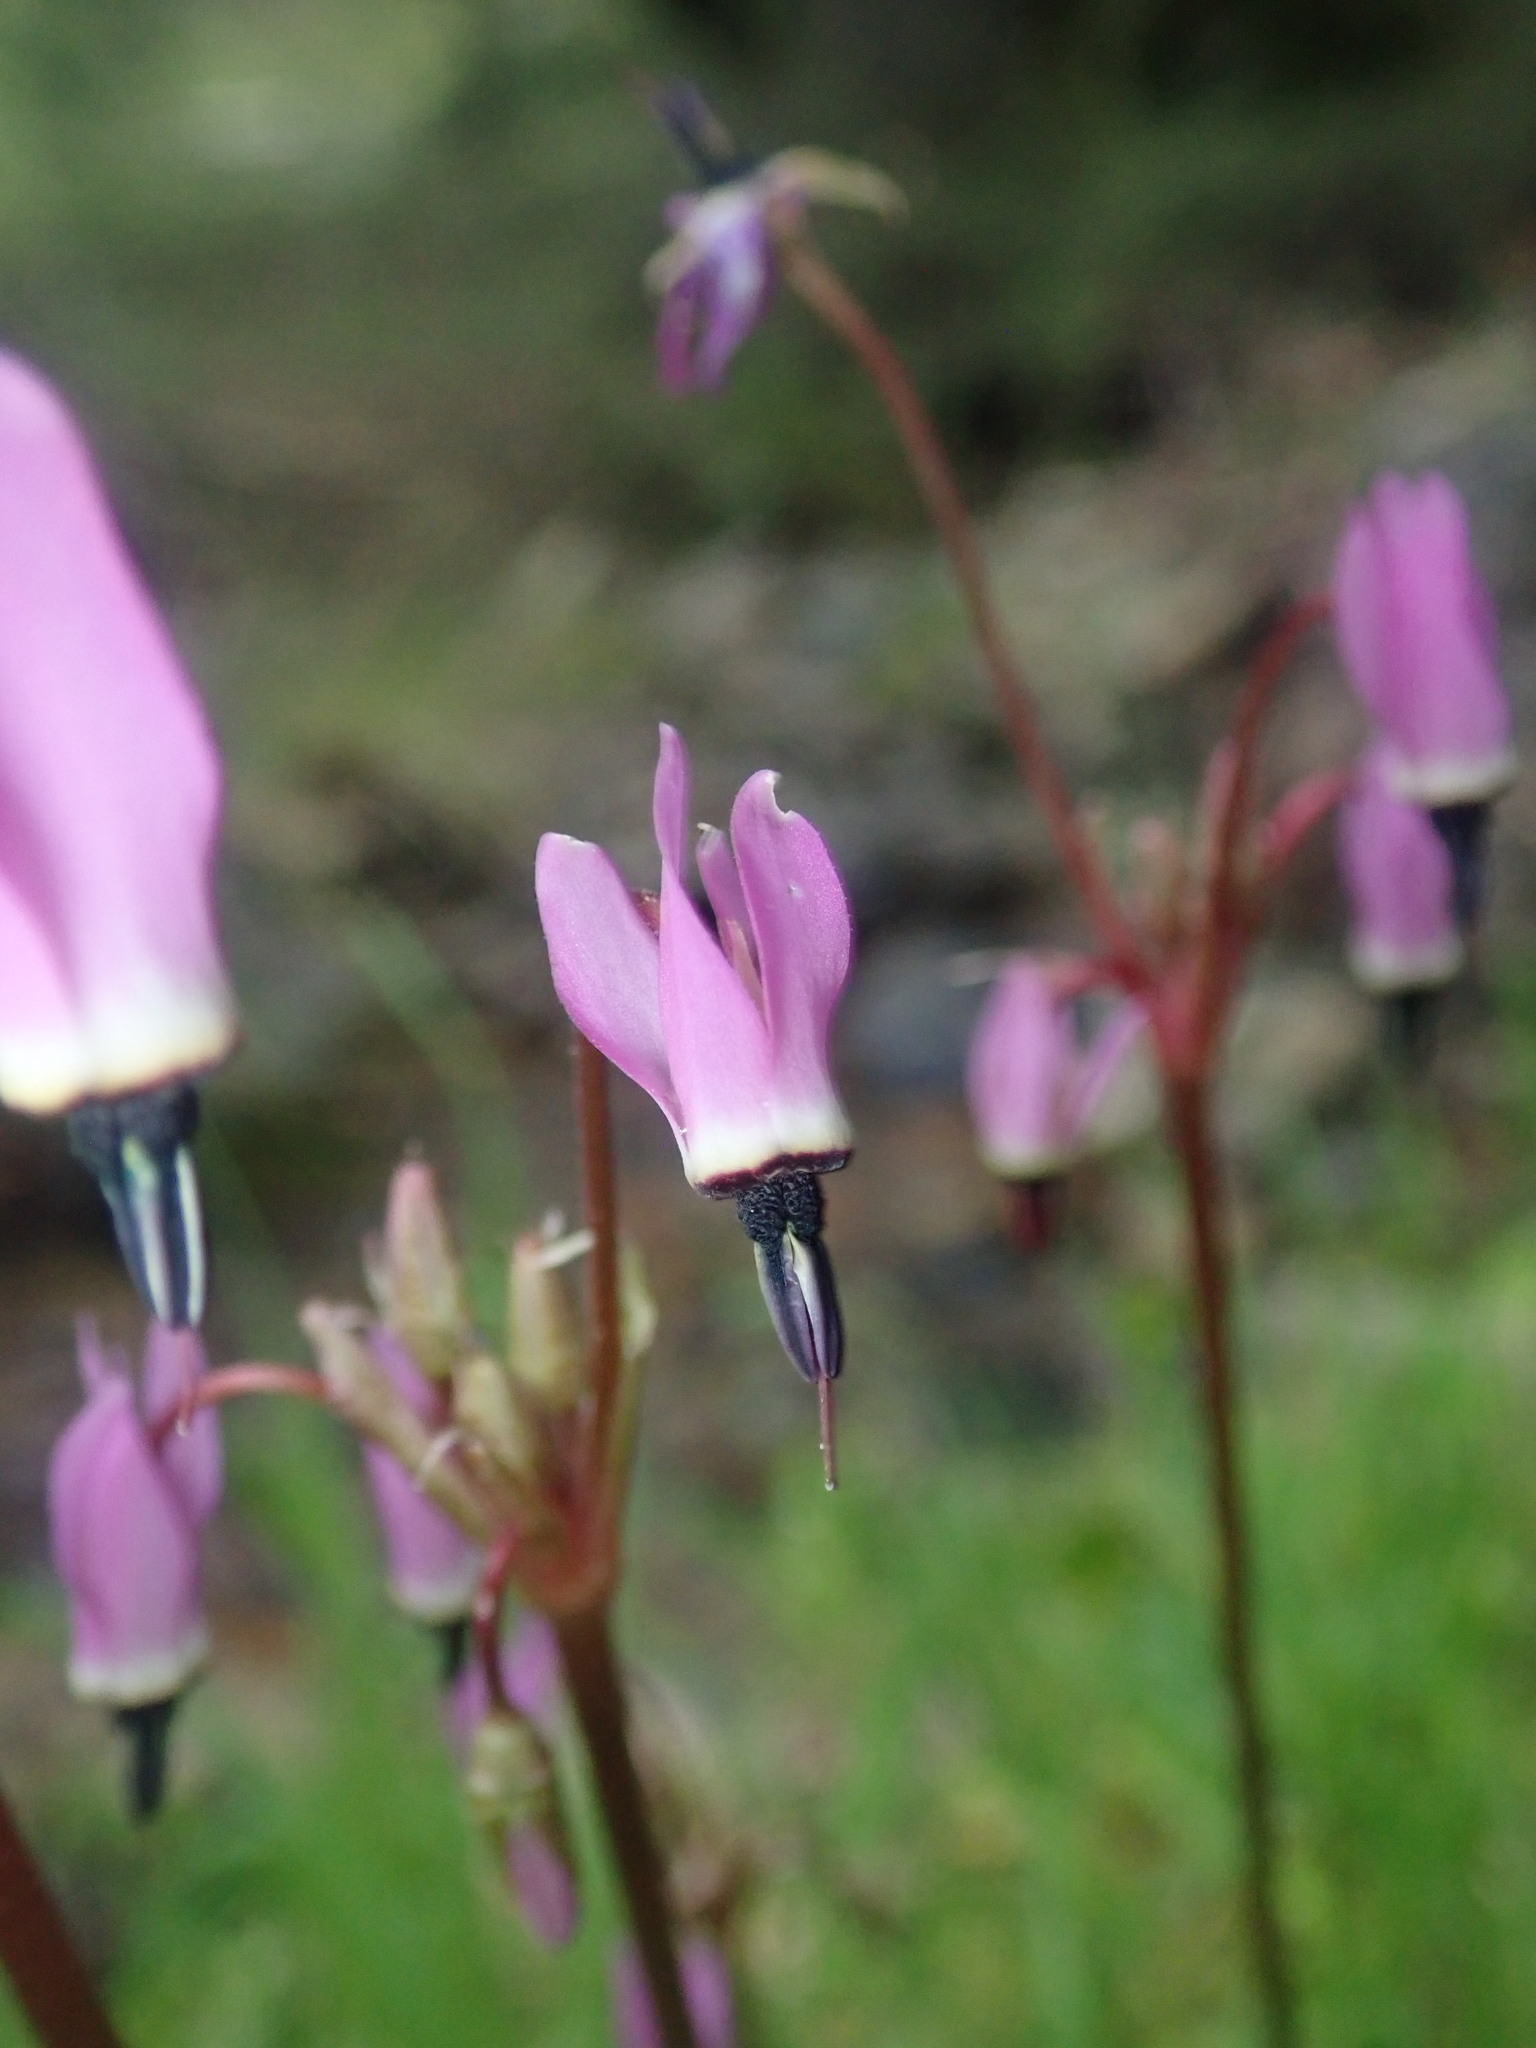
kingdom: Plantae
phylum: Tracheophyta
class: Magnoliopsida
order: Ericales
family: Primulaceae
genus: Dodecatheon
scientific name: Dodecatheon hendersonii
